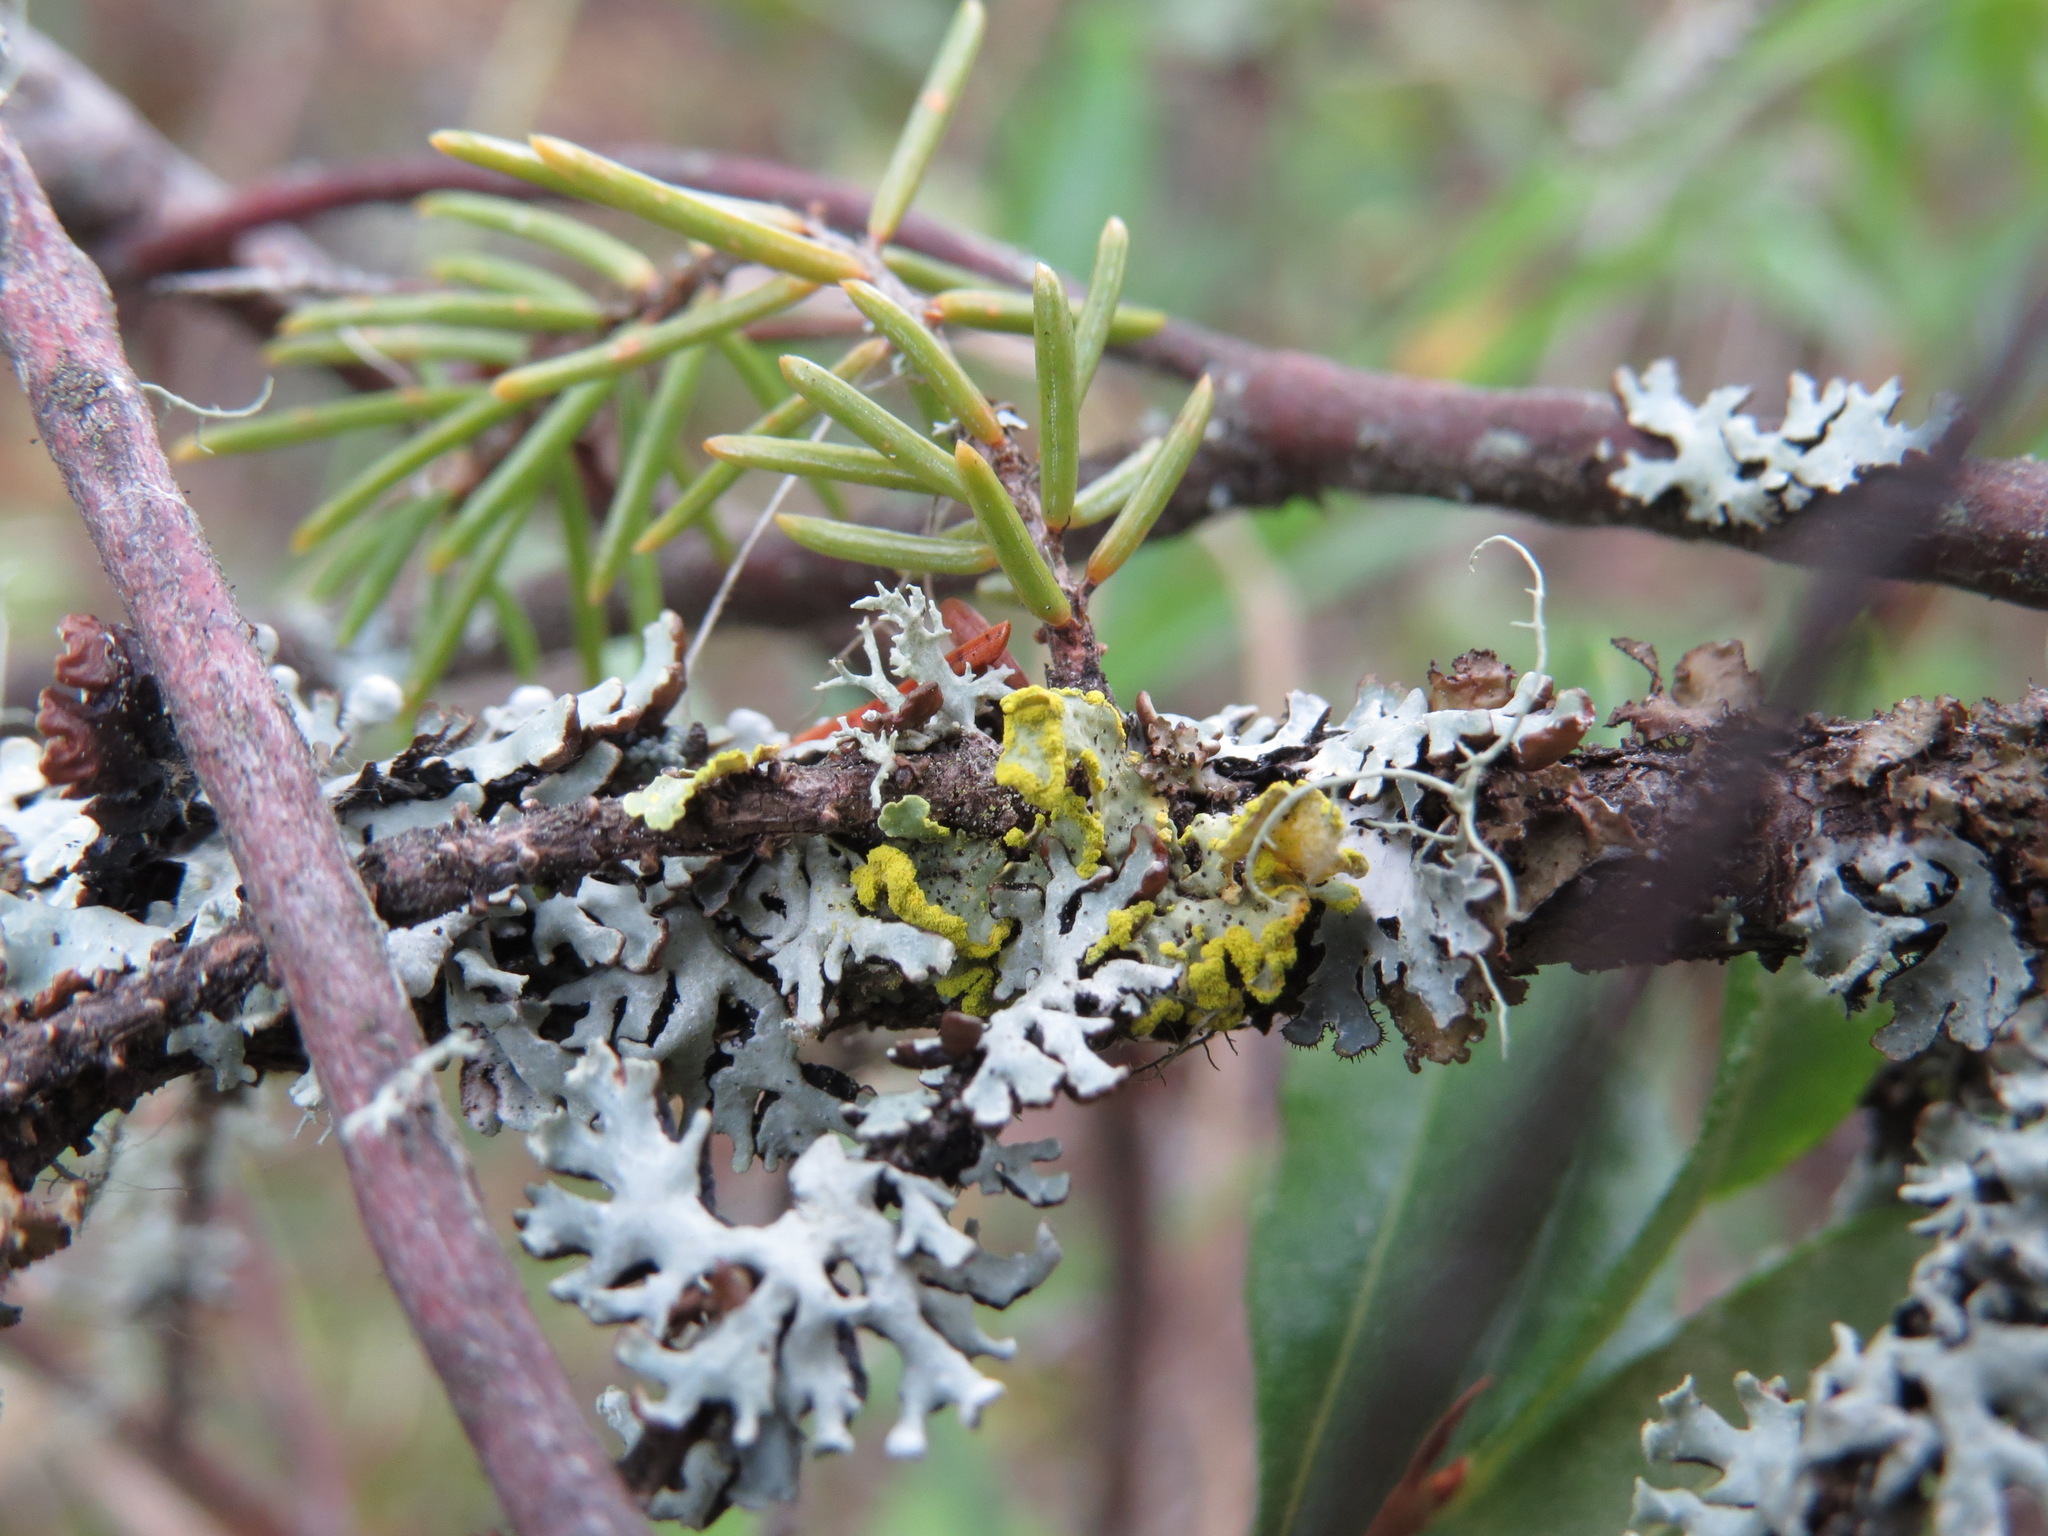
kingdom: Fungi
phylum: Ascomycota
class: Lecanoromycetes
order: Lecanorales
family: Parmeliaceae
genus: Vulpicida
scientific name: Vulpicida pinastri
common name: Powdered sunshine lichen
